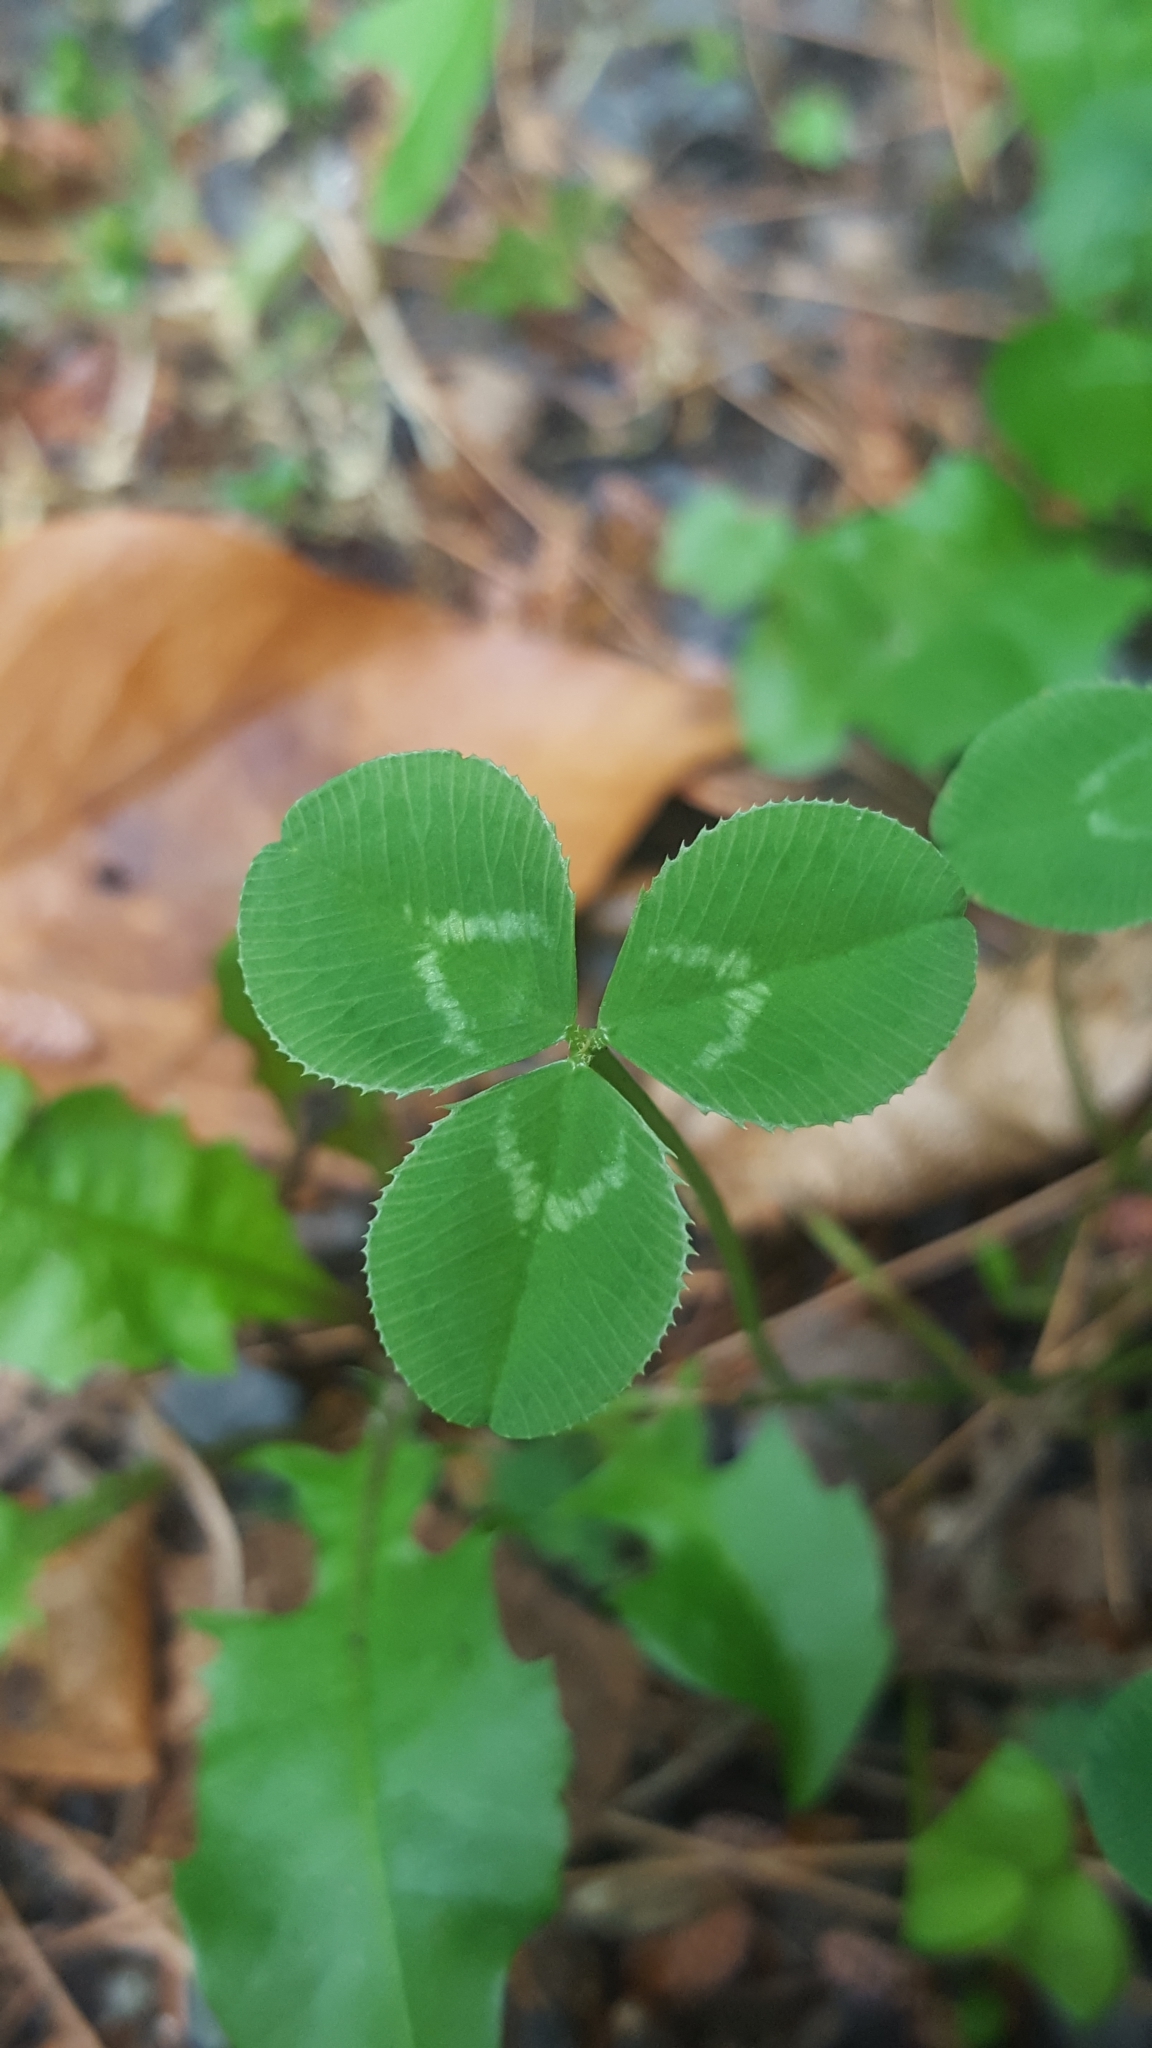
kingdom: Plantae
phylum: Tracheophyta
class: Magnoliopsida
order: Fabales
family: Fabaceae
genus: Trifolium
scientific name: Trifolium repens
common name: White clover
